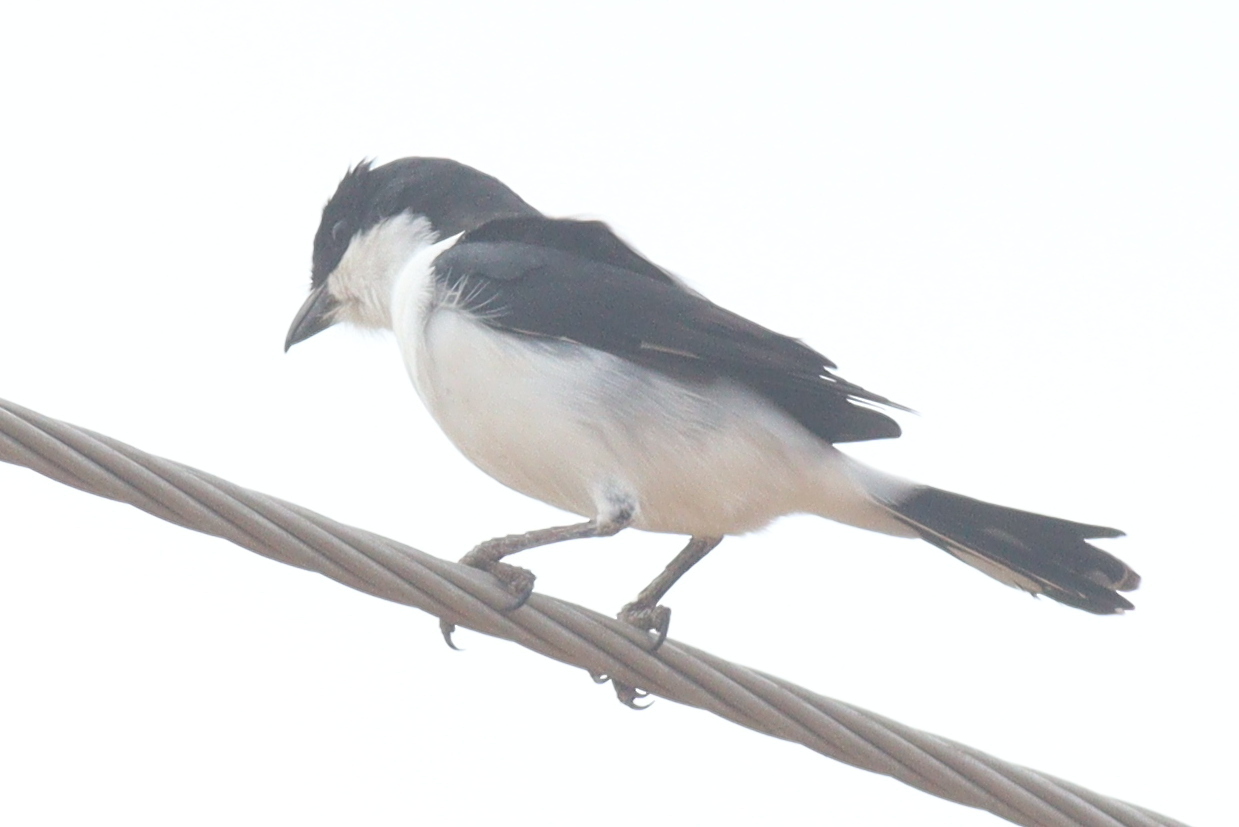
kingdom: Animalia
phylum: Chordata
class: Aves
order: Passeriformes
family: Laniidae
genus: Lanius
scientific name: Lanius dorsalis
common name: Taita fiscal
